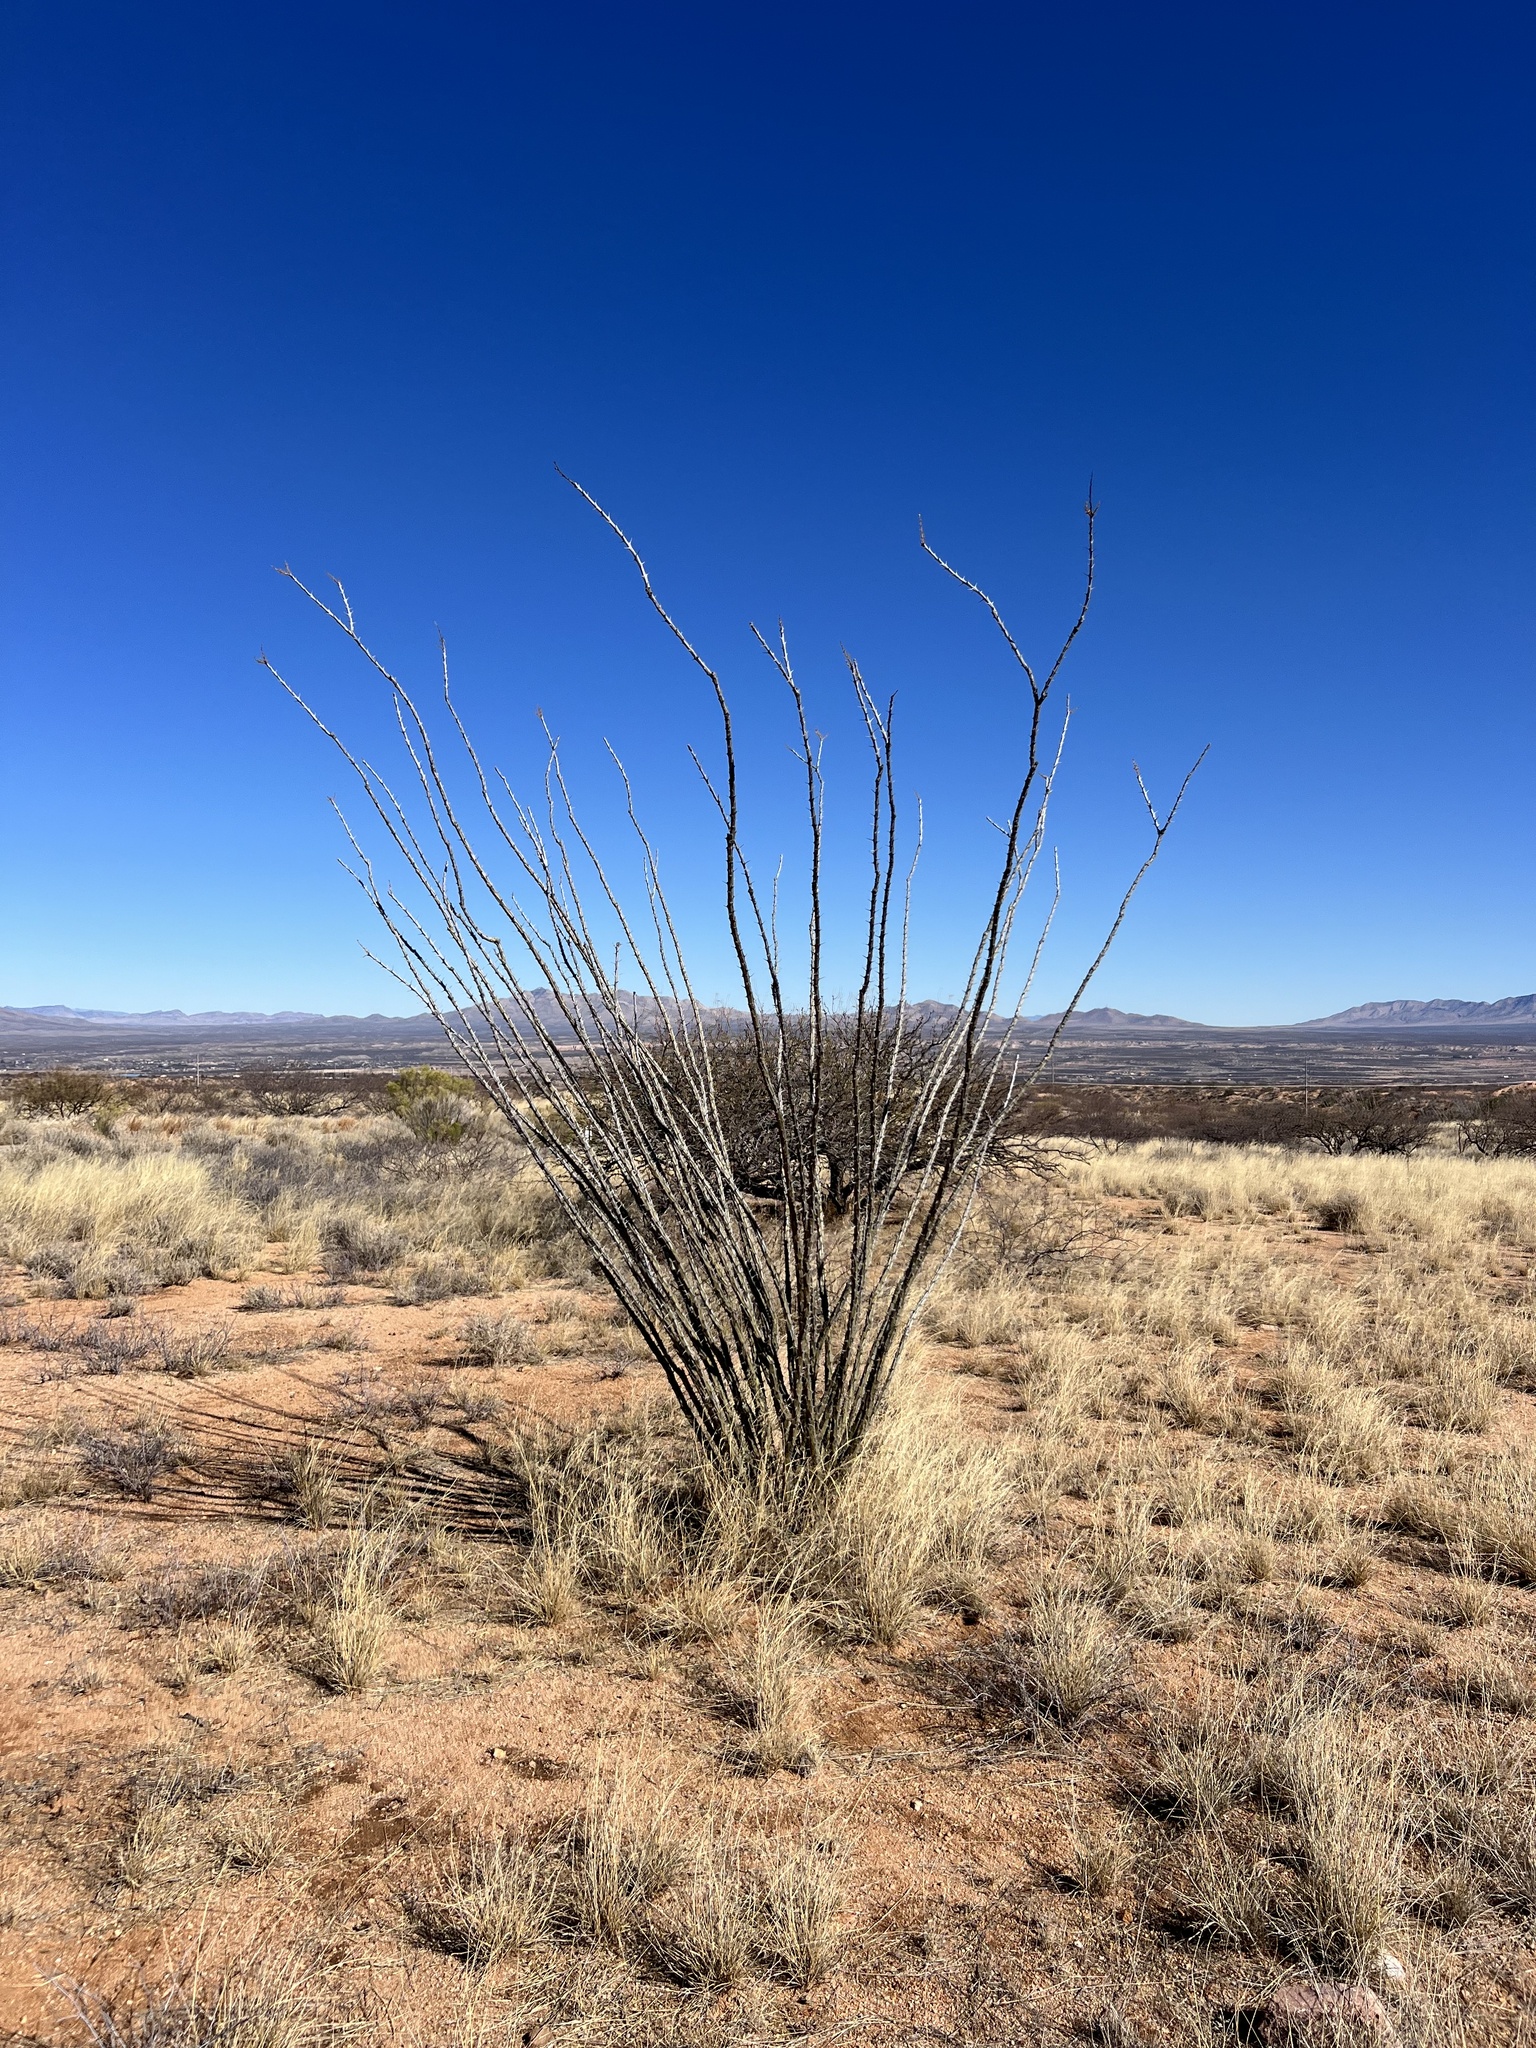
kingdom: Plantae
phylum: Tracheophyta
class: Magnoliopsida
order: Ericales
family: Fouquieriaceae
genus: Fouquieria
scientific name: Fouquieria splendens
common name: Vine-cactus
